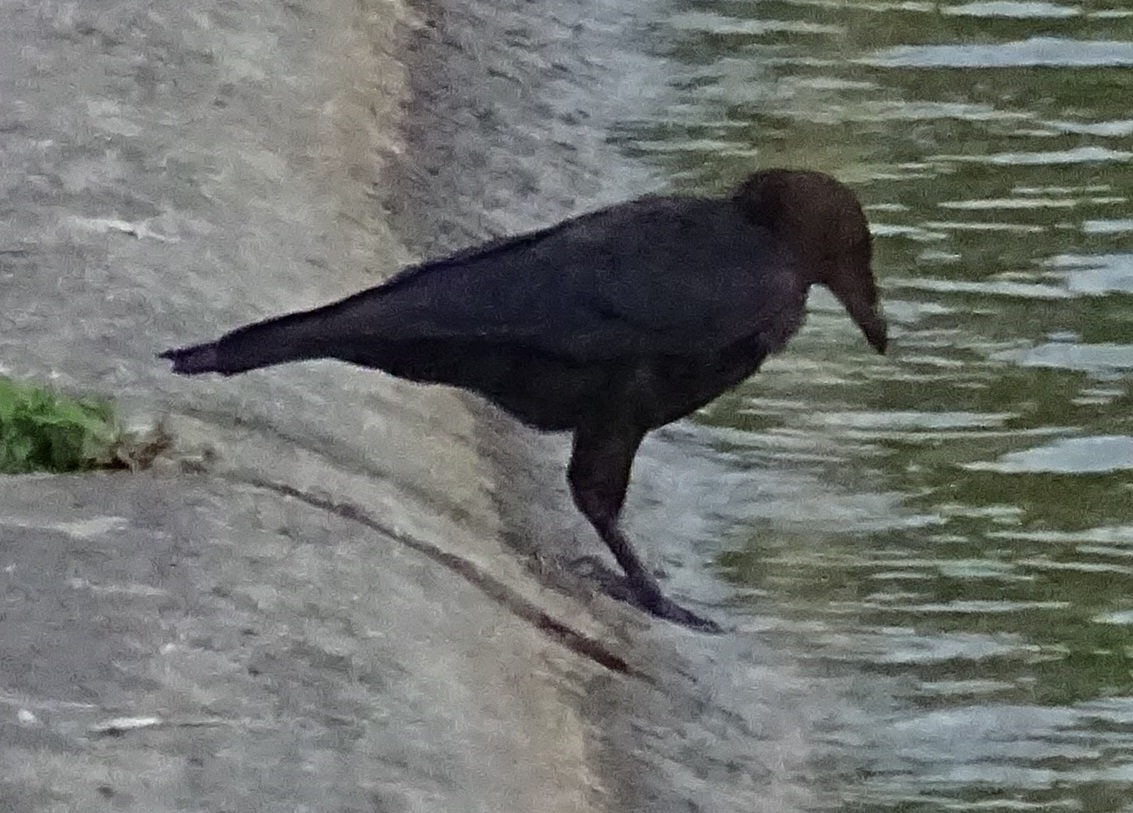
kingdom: Animalia
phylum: Chordata
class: Aves
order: Passeriformes
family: Corvidae
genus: Corvus
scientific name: Corvus corone
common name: Carrion crow
